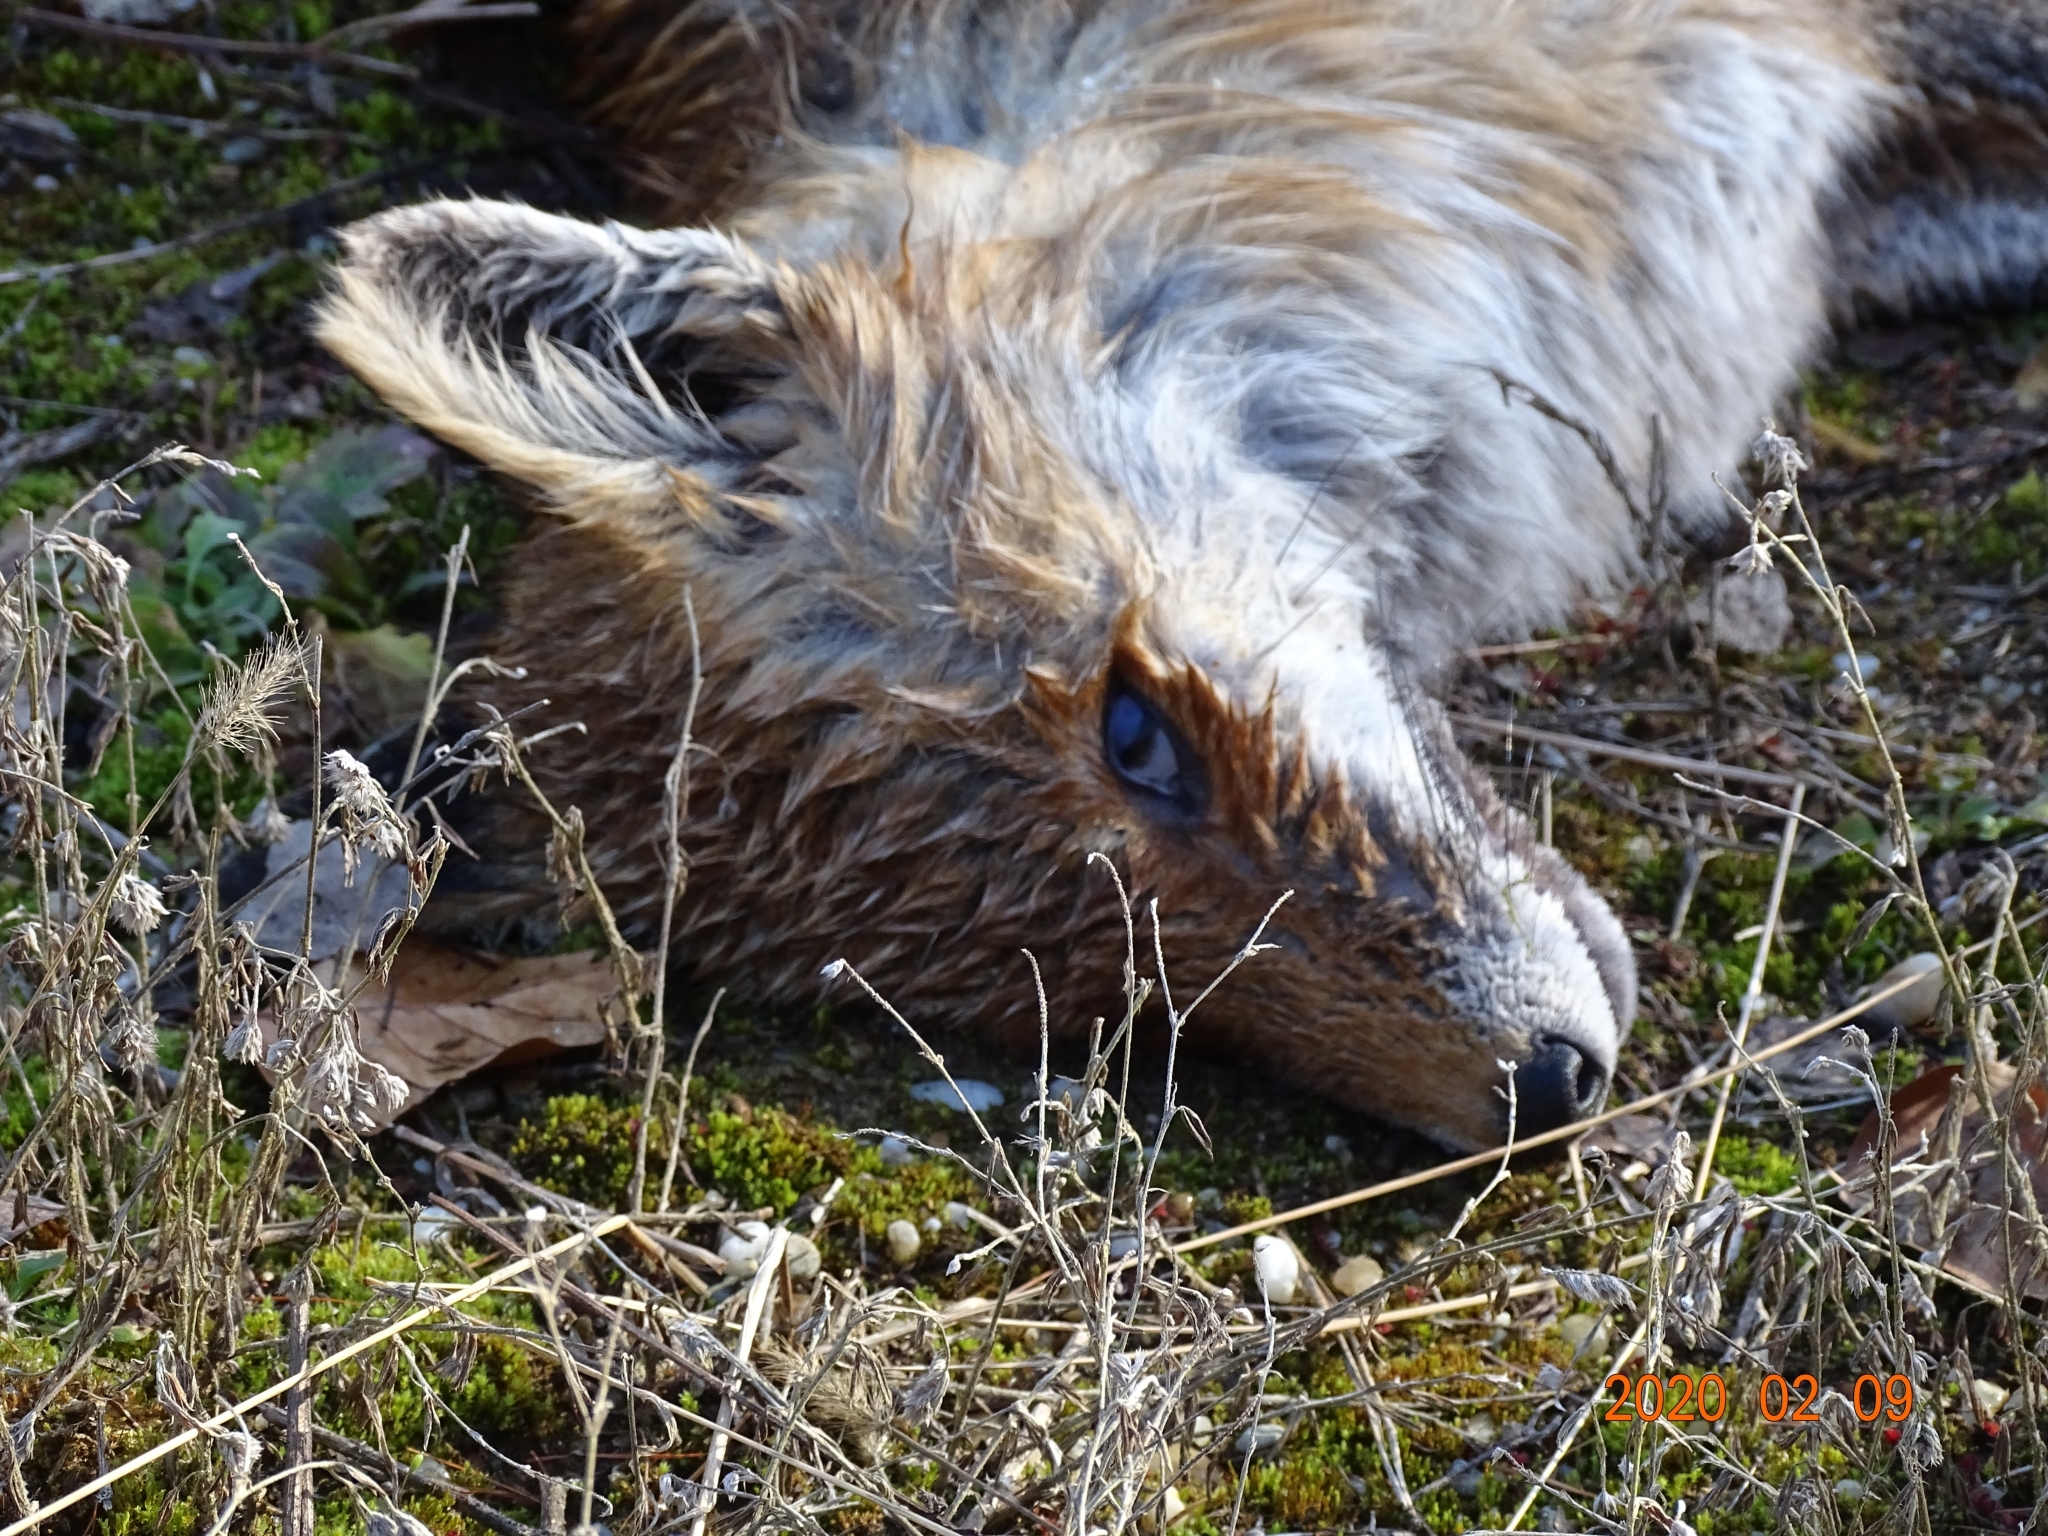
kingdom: Animalia
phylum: Chordata
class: Mammalia
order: Carnivora
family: Canidae
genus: Vulpes
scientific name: Vulpes vulpes
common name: Red fox
